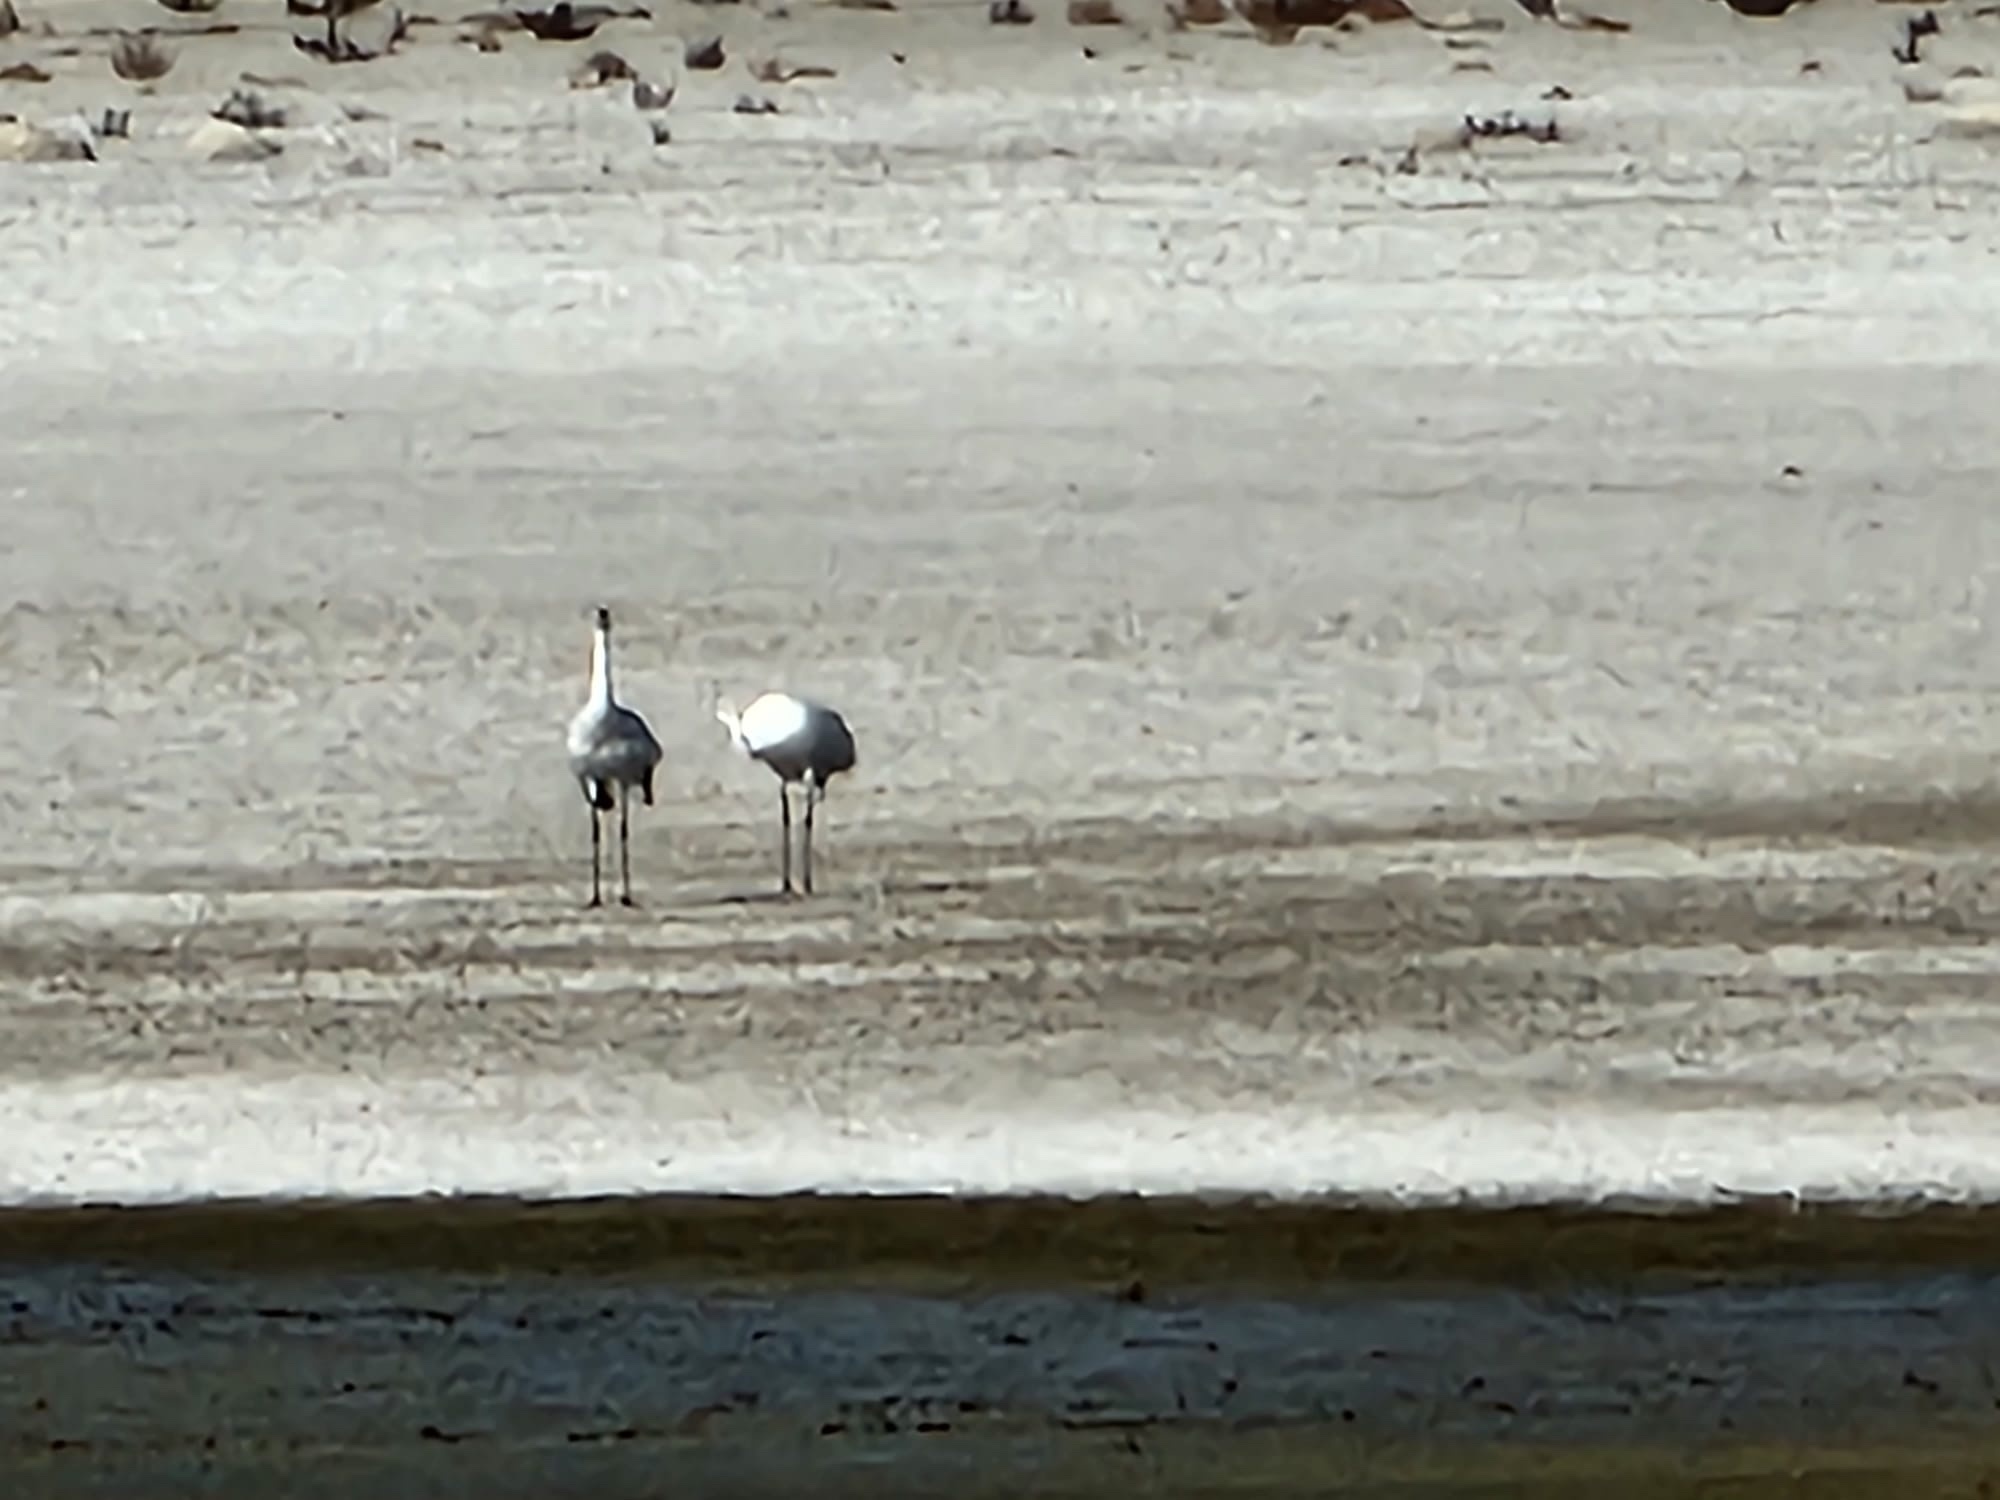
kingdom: Animalia
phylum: Chordata
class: Aves
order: Gruiformes
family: Gruidae
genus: Grus
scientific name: Grus americana
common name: Whooping crane
